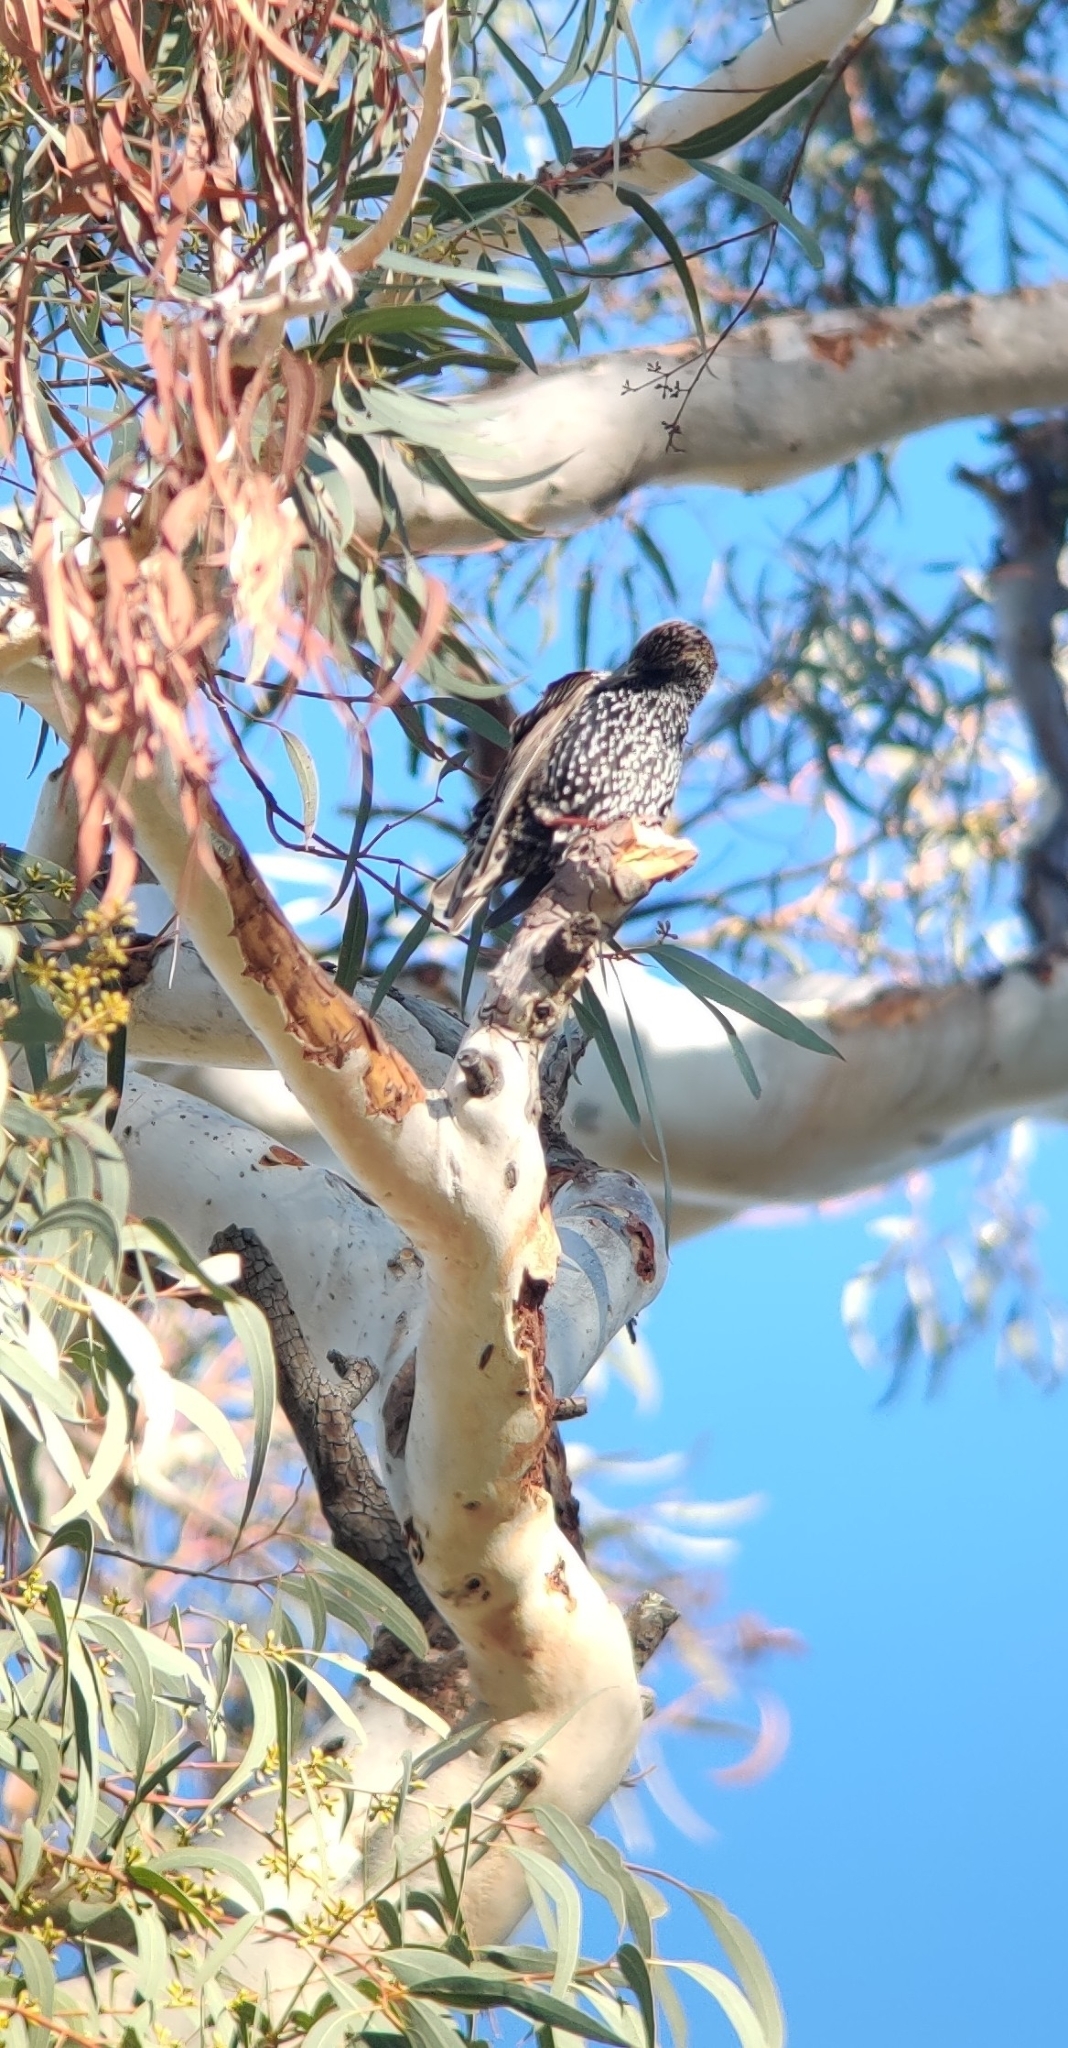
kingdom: Animalia
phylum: Chordata
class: Aves
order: Passeriformes
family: Sturnidae
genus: Sturnus
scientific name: Sturnus vulgaris
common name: Common starling
